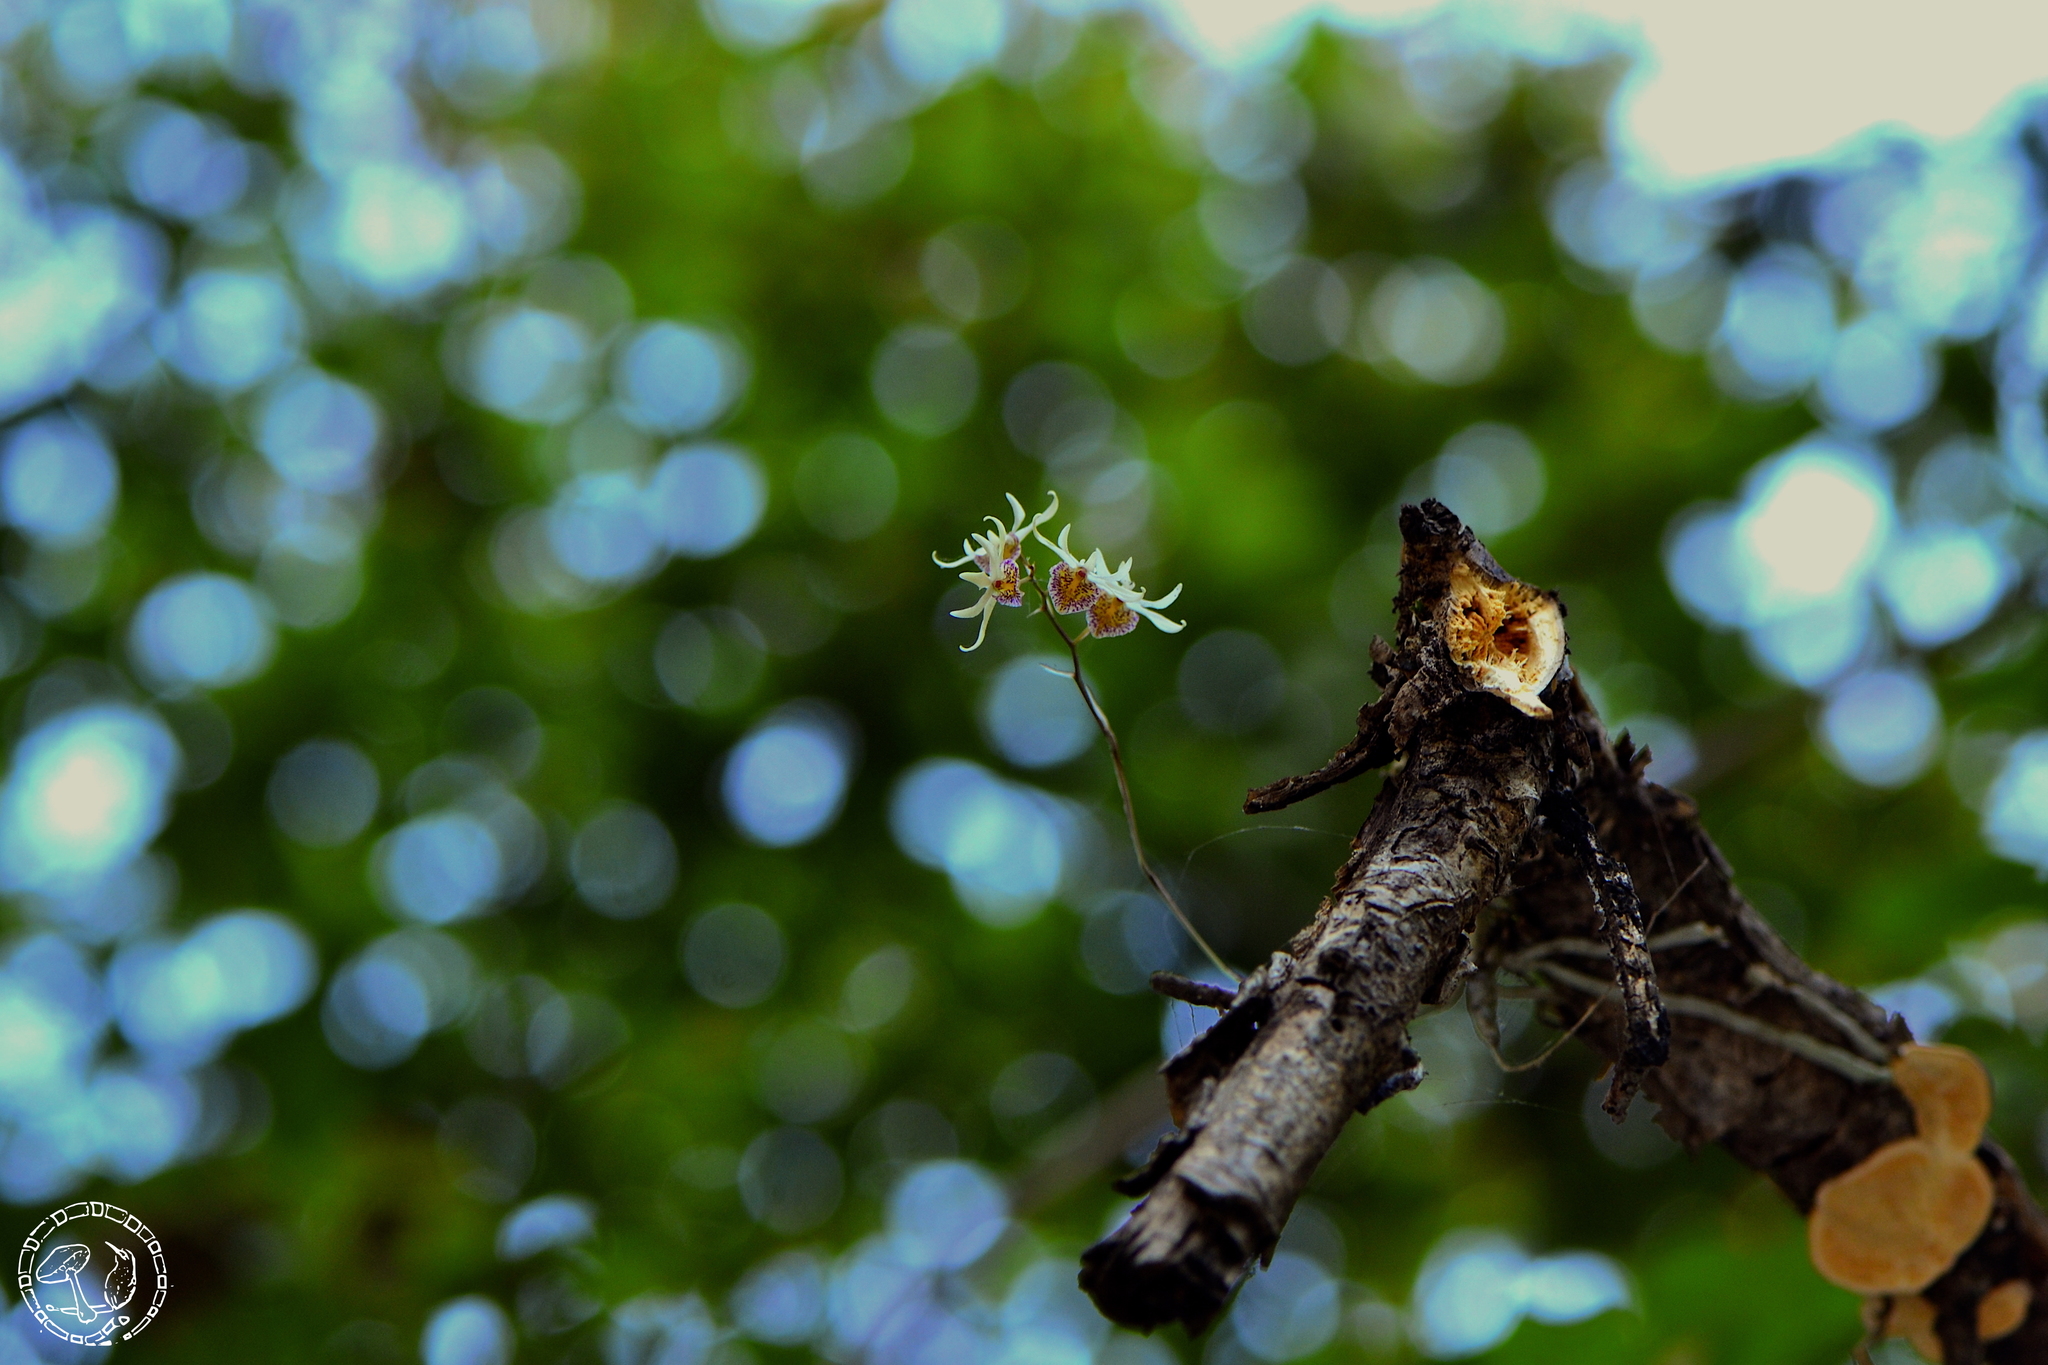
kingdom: Plantae
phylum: Tracheophyta
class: Liliopsida
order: Asparagales
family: Orchidaceae
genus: Barkeria
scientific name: Barkeria obovata
